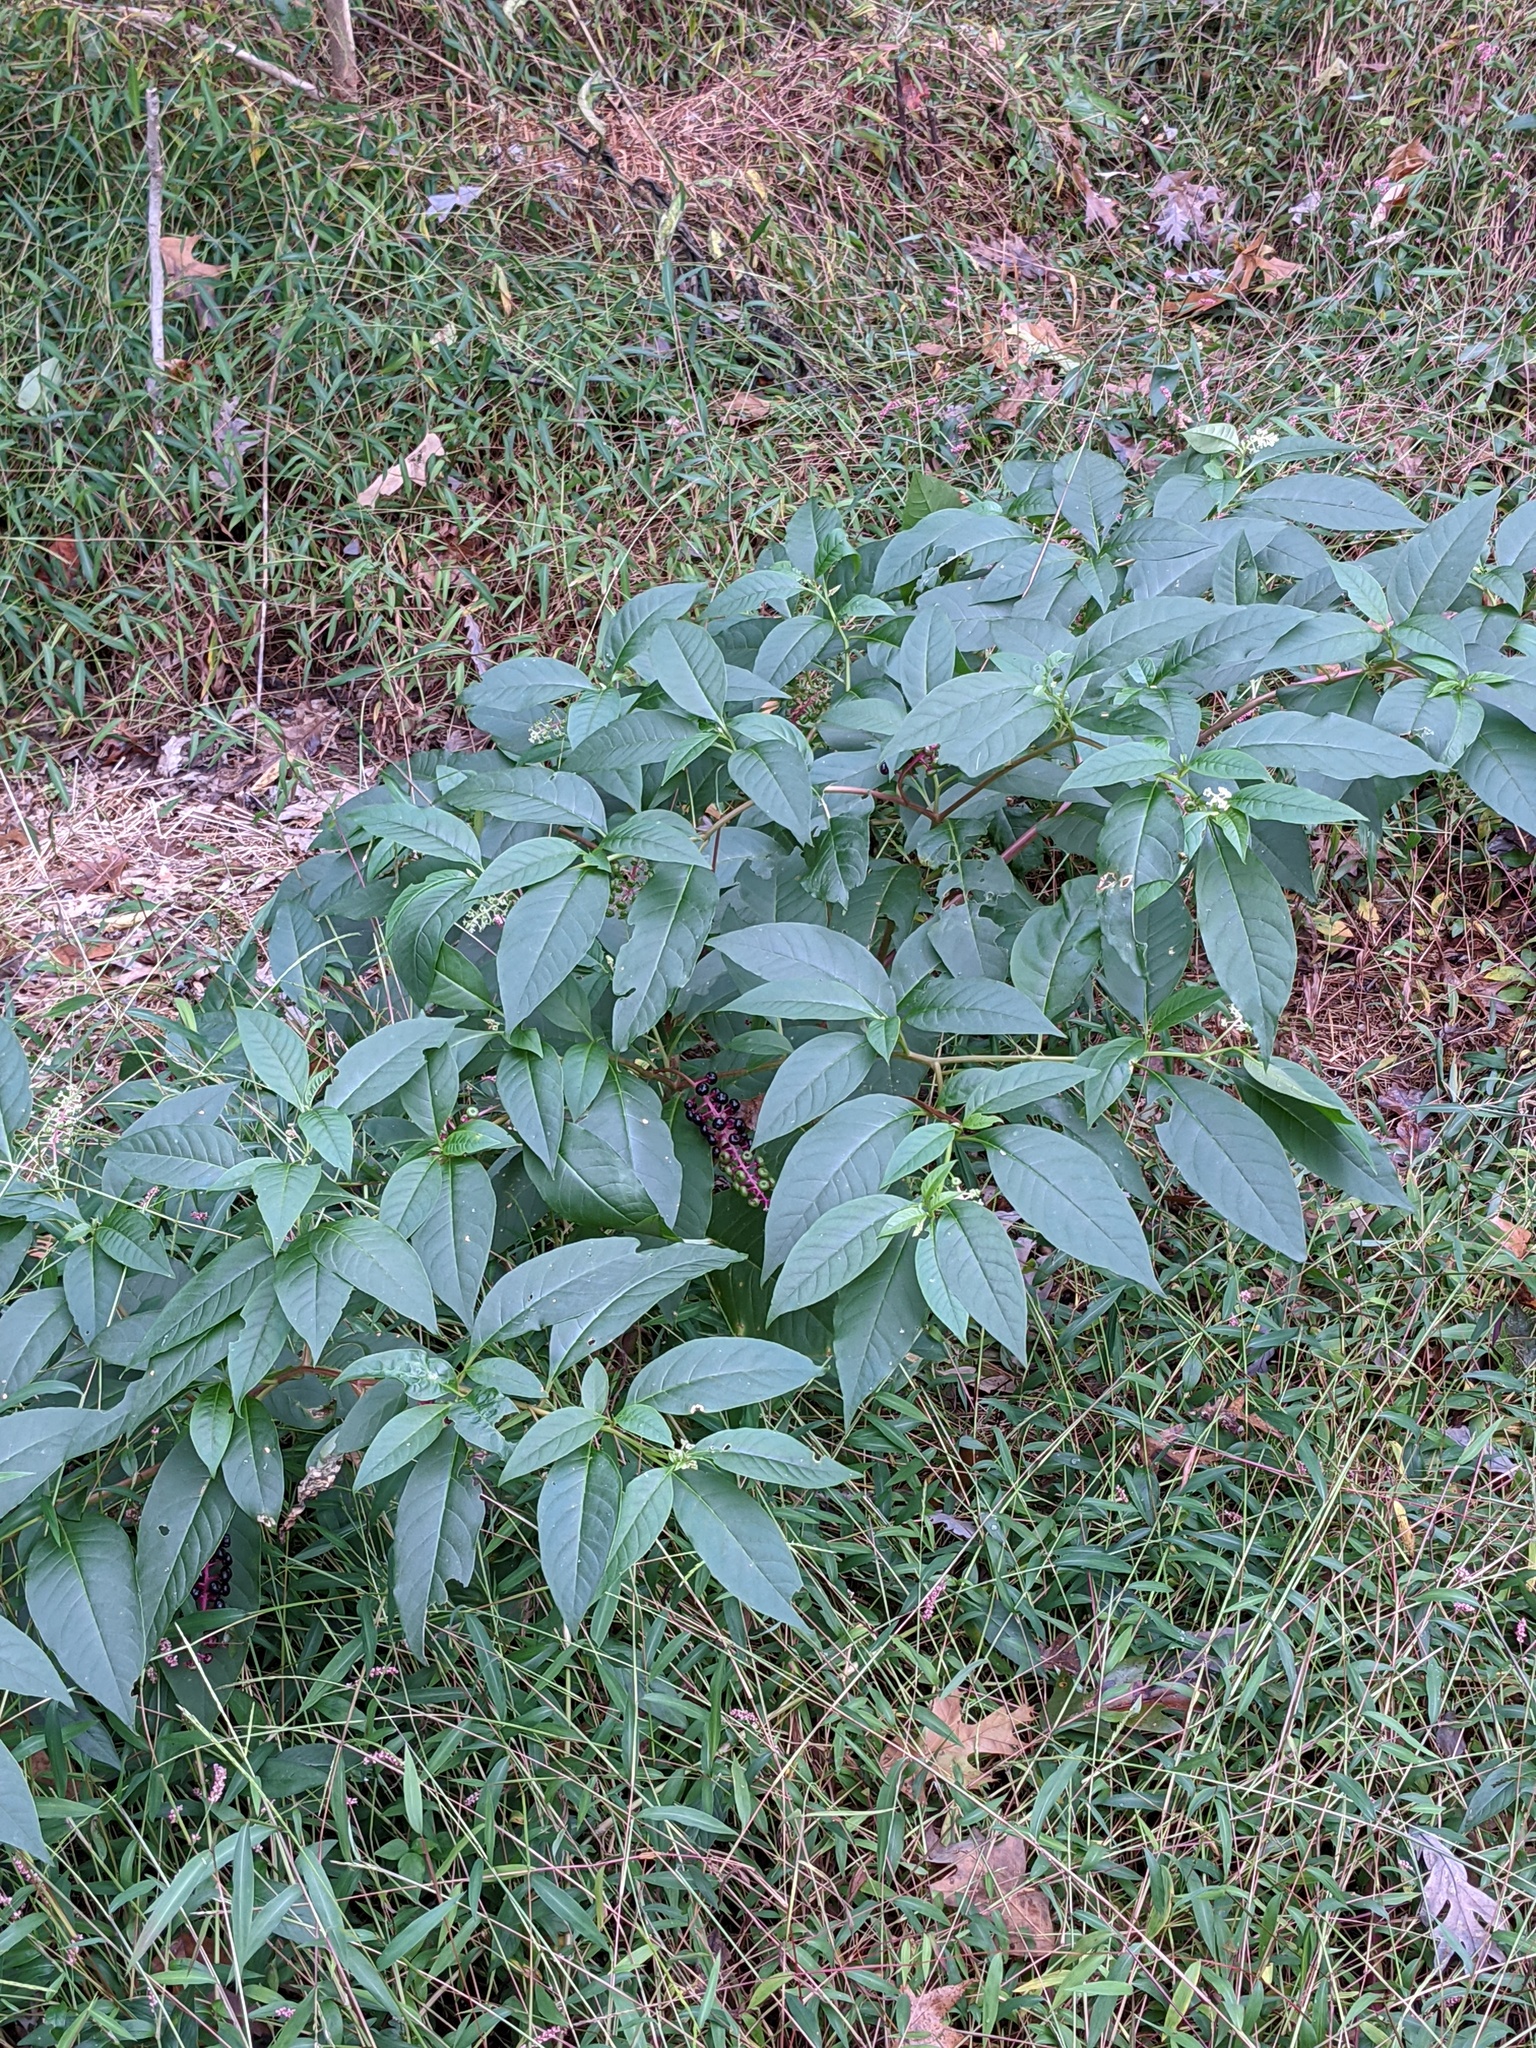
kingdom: Plantae
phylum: Tracheophyta
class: Magnoliopsida
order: Caryophyllales
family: Phytolaccaceae
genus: Phytolacca
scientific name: Phytolacca americana
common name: American pokeweed
